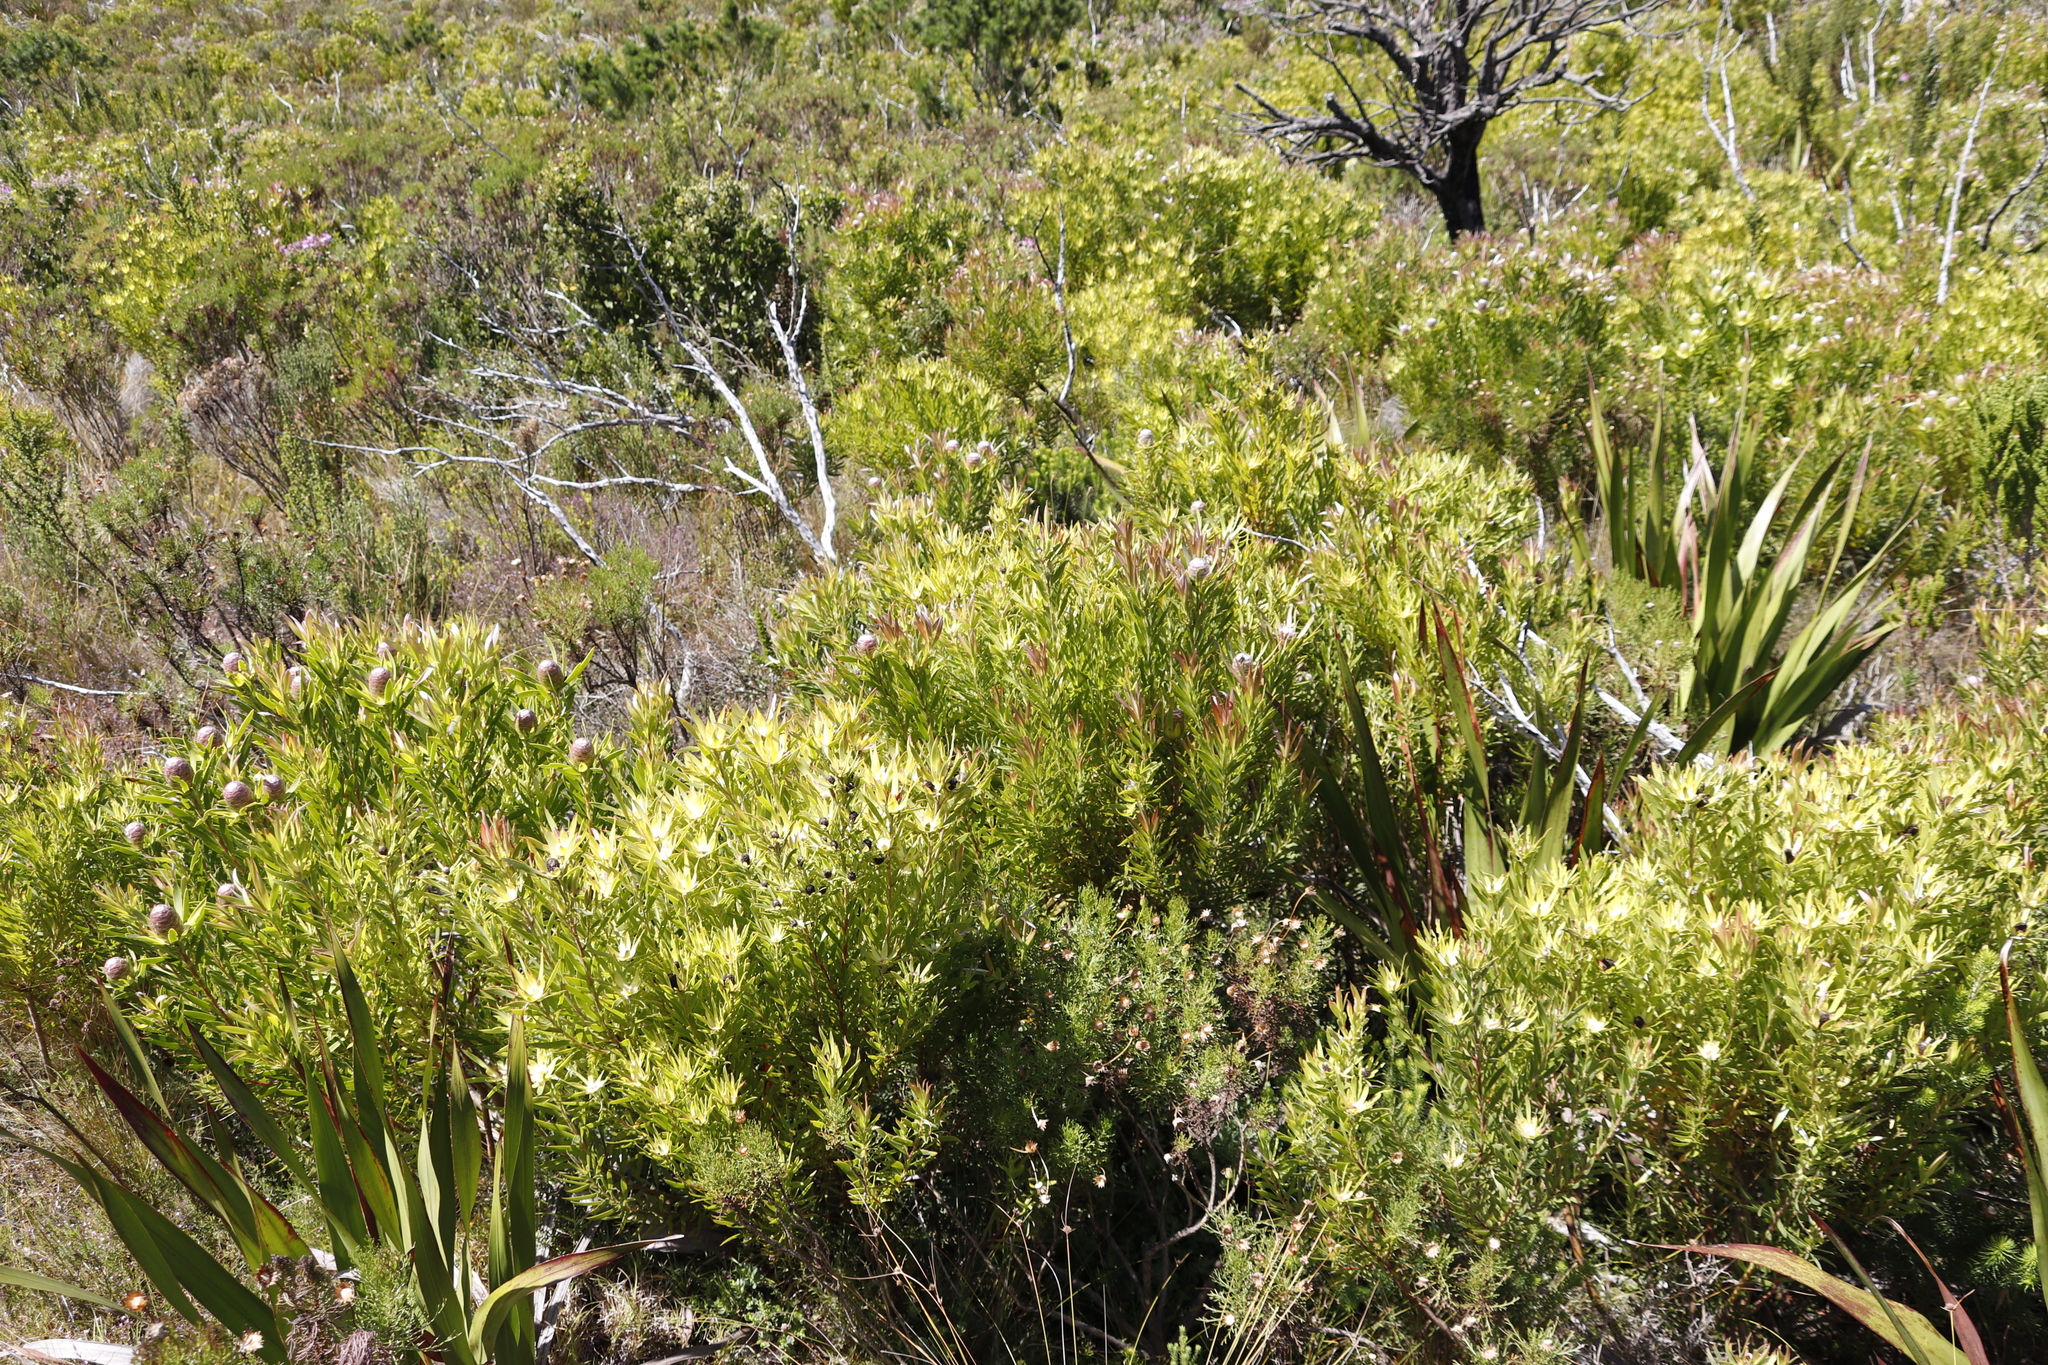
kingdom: Plantae
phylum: Tracheophyta
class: Magnoliopsida
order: Proteales
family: Proteaceae
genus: Leucadendron
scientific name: Leucadendron xanthoconus
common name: Sickle-leaf conebush
